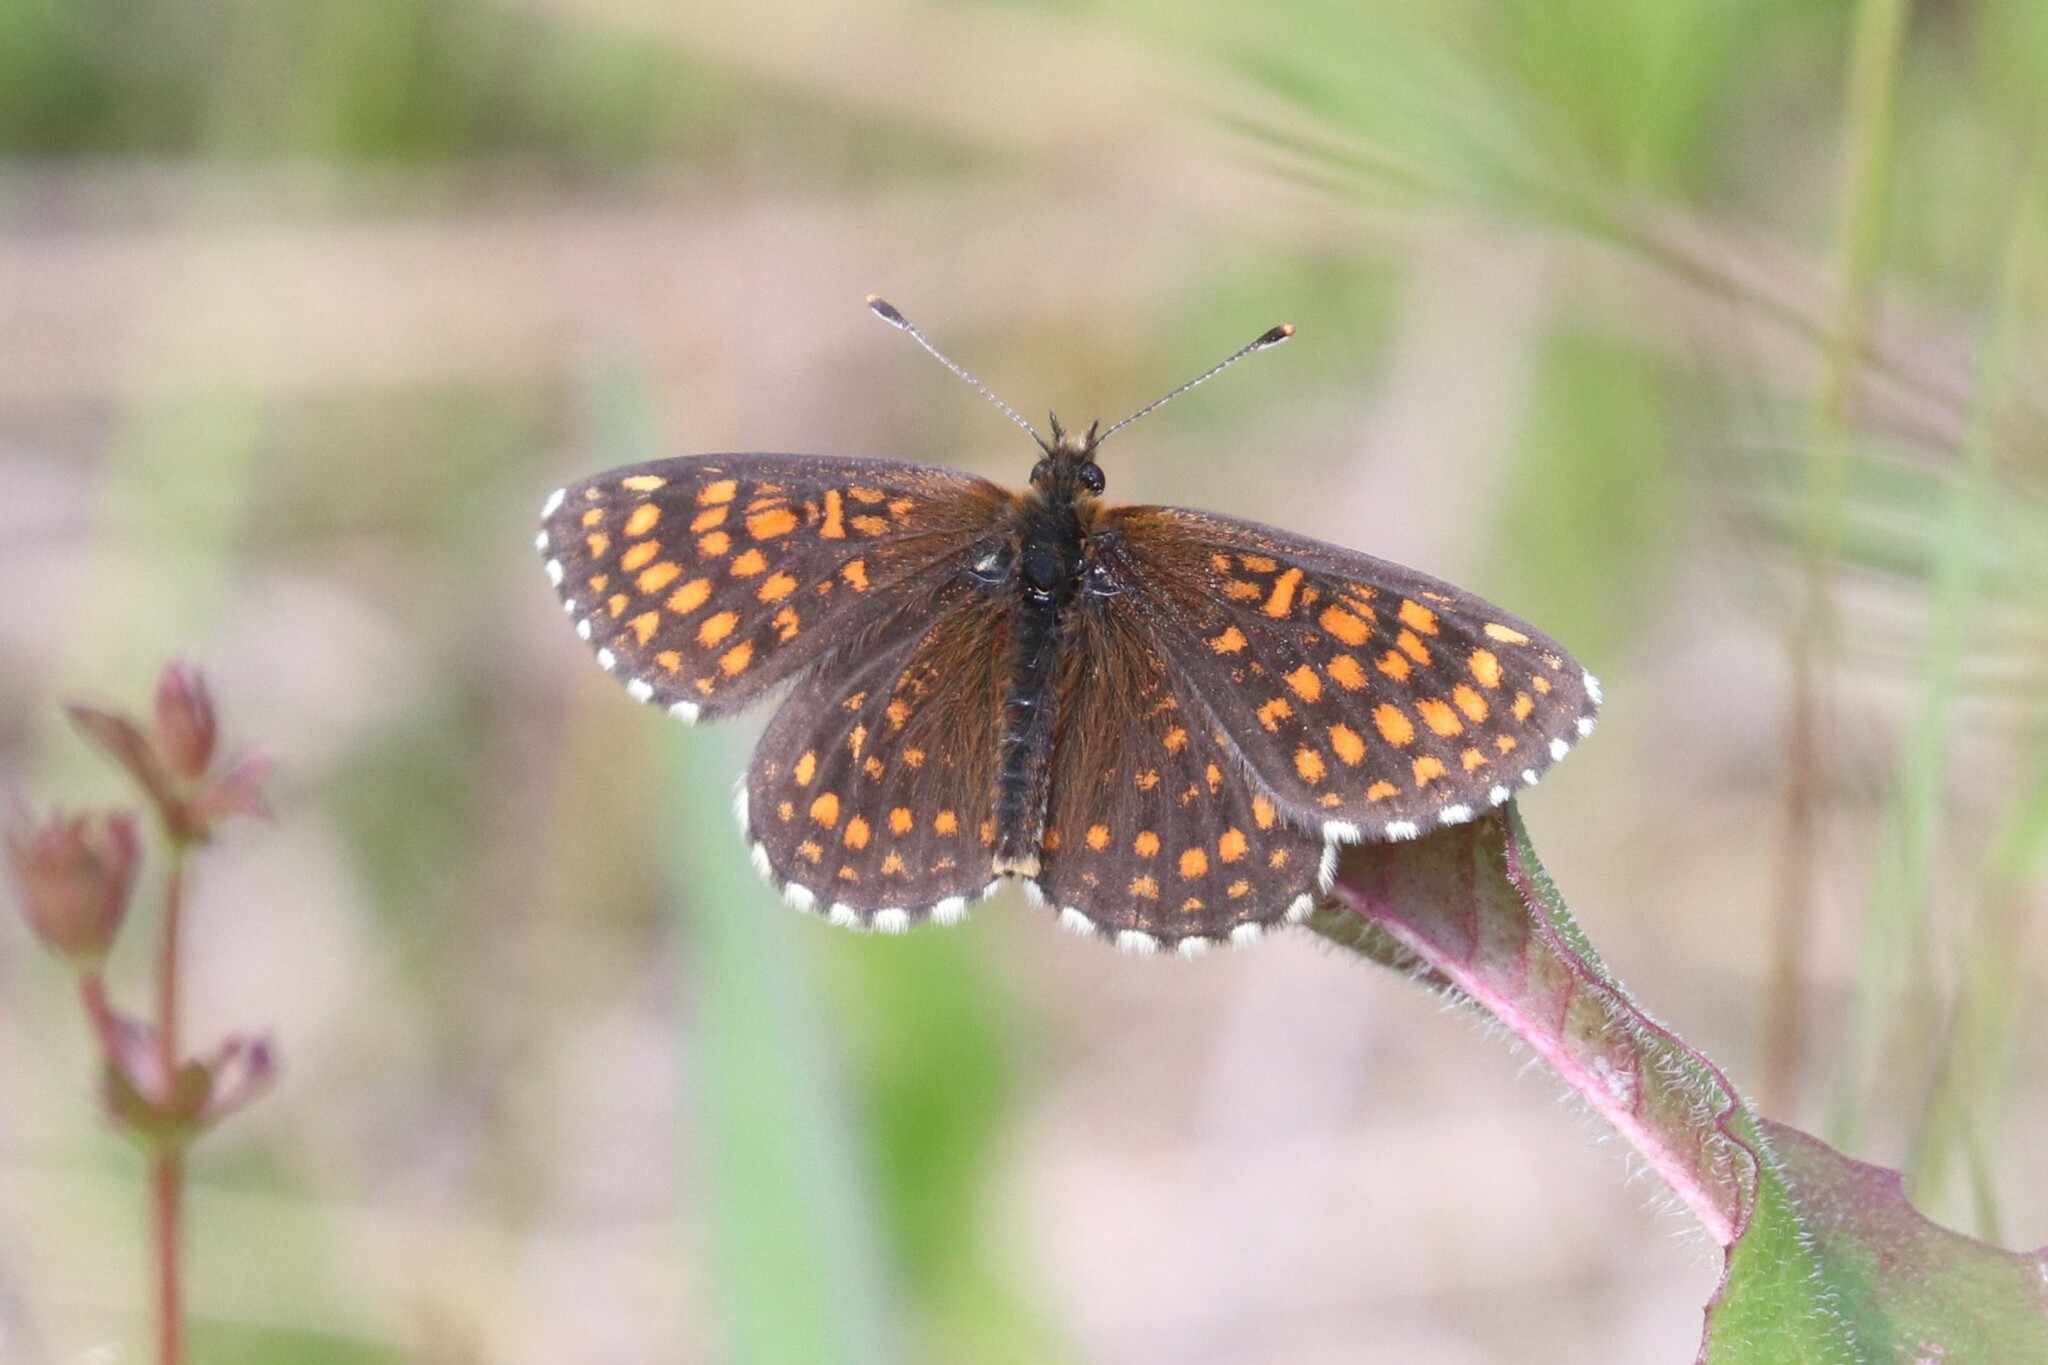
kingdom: Animalia
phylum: Arthropoda
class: Insecta
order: Lepidoptera
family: Nymphalidae
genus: Melitaea
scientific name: Melitaea
